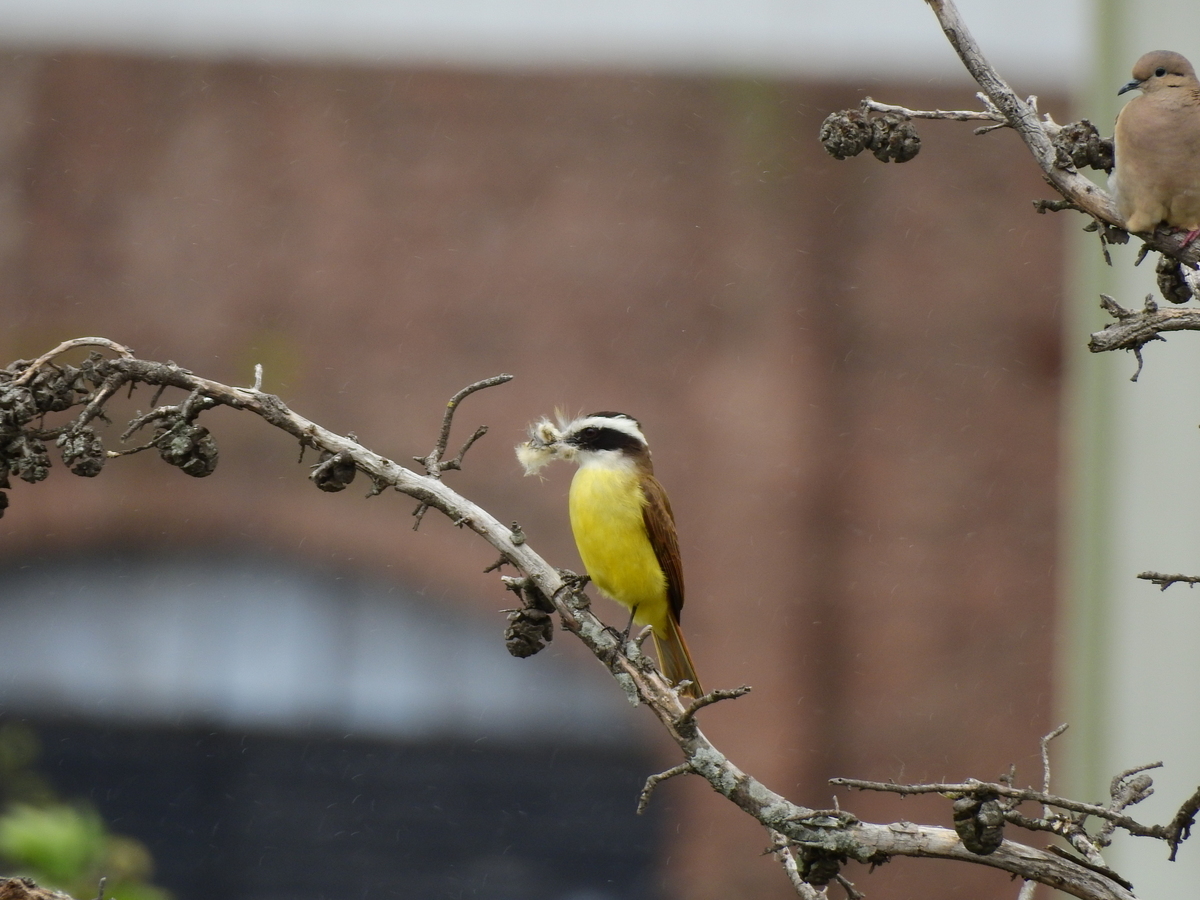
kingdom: Animalia
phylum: Chordata
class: Aves
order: Passeriformes
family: Tyrannidae
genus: Pitangus
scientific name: Pitangus sulphuratus
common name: Great kiskadee
